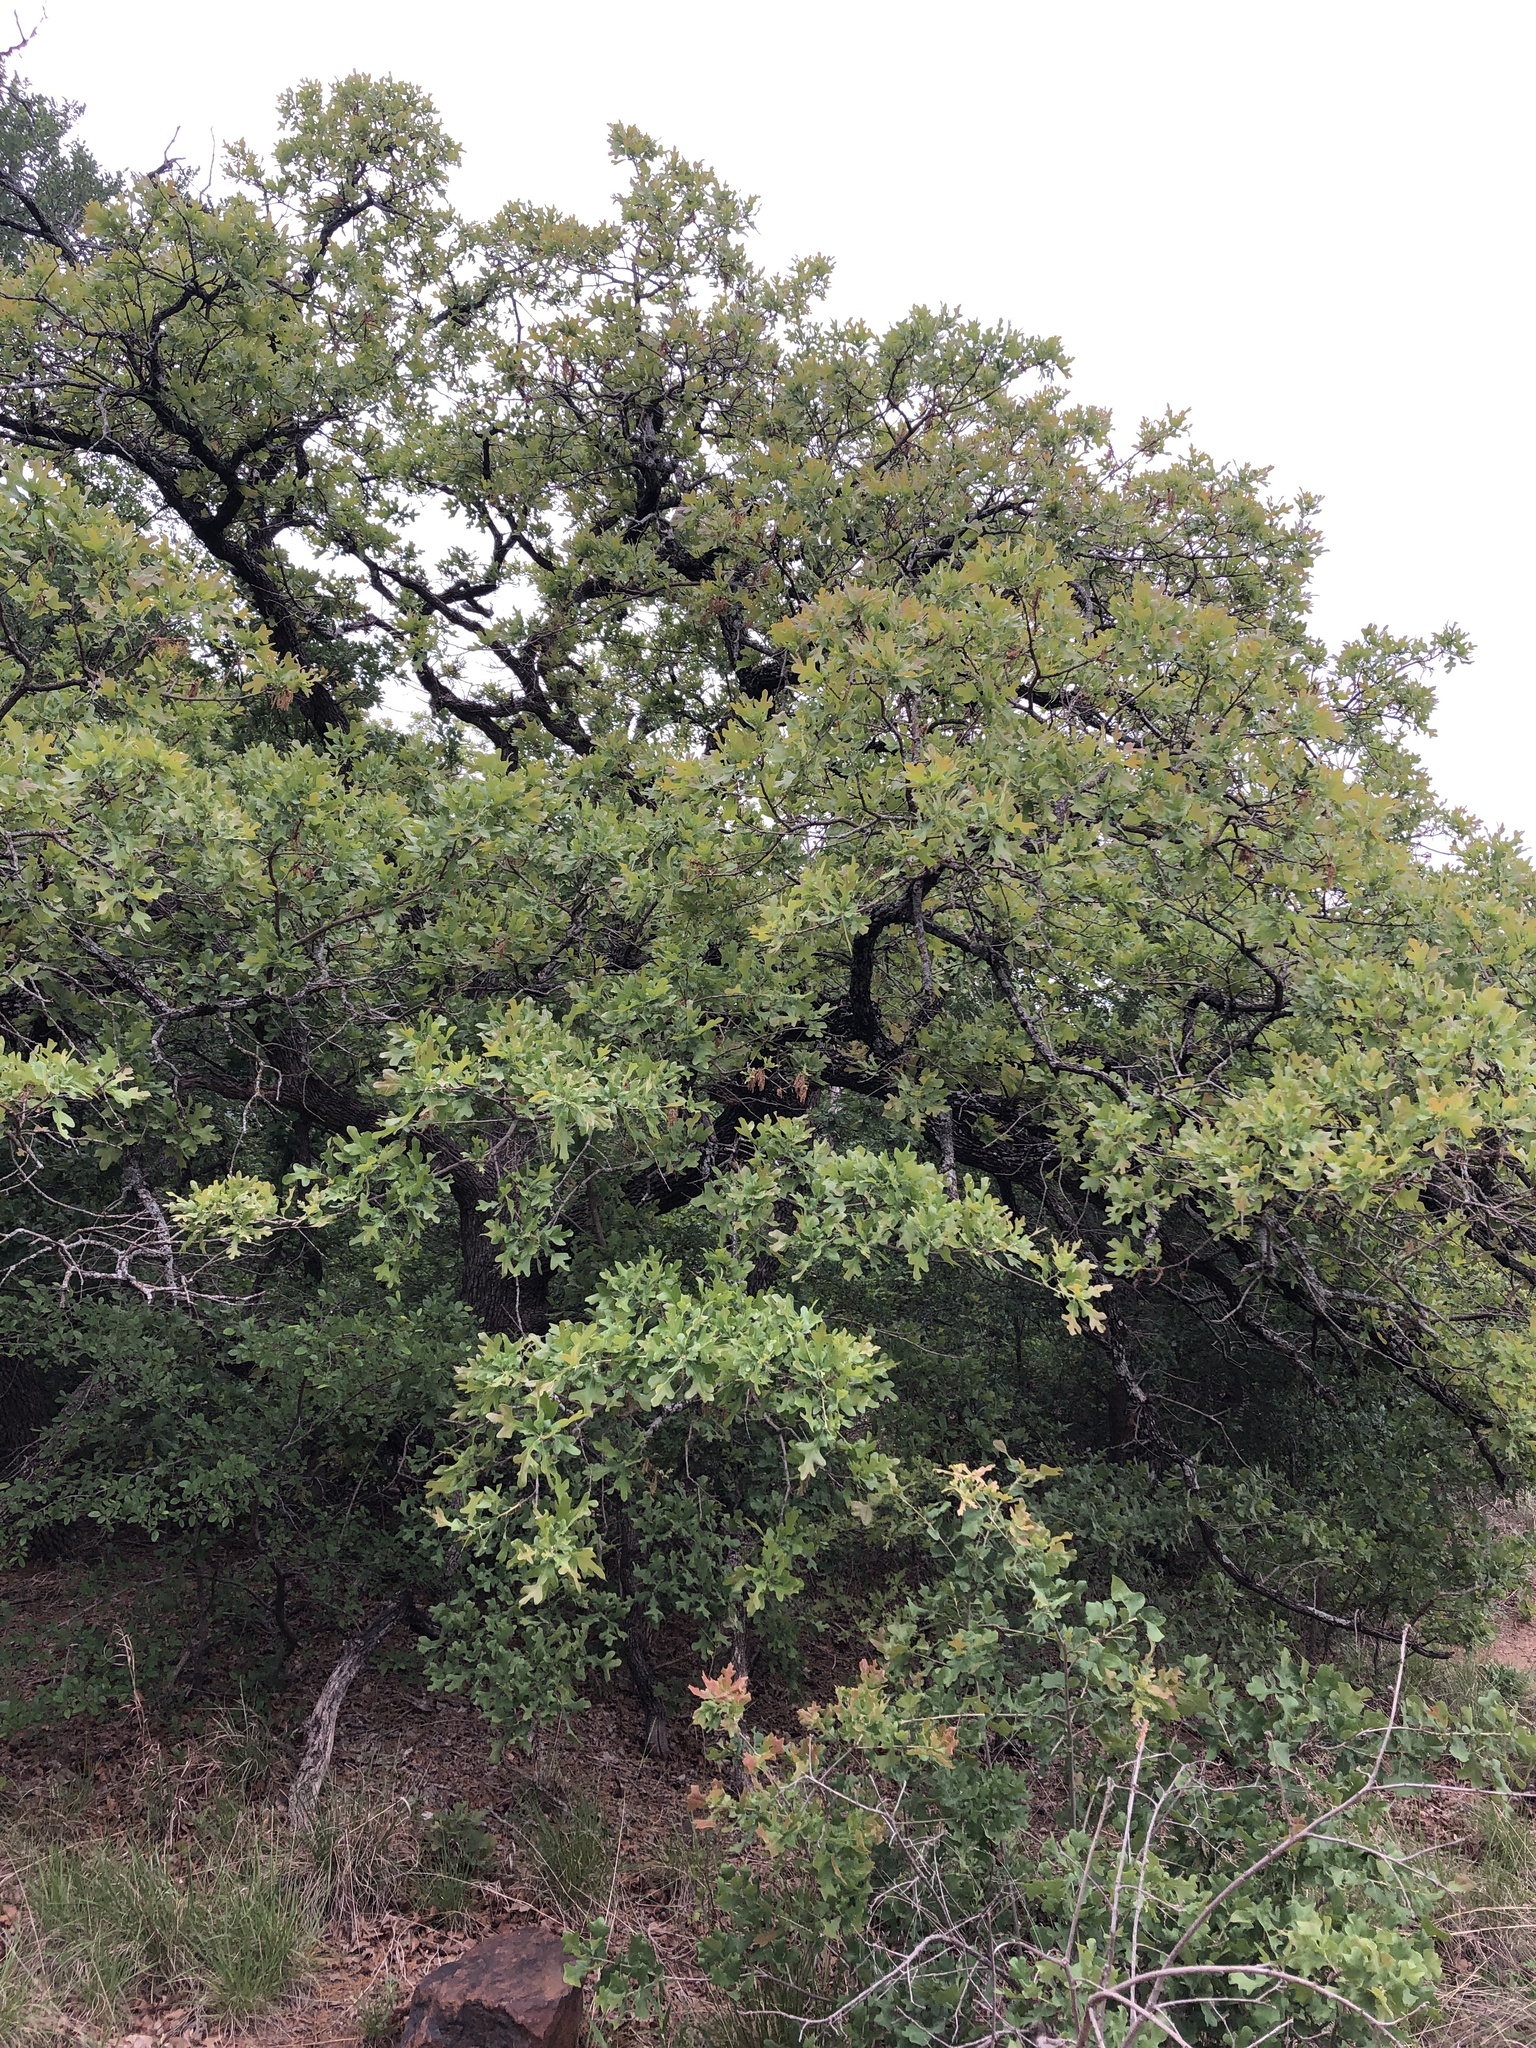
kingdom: Plantae
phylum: Tracheophyta
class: Magnoliopsida
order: Fagales
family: Fagaceae
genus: Quercus
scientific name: Quercus stellata
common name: Post oak
